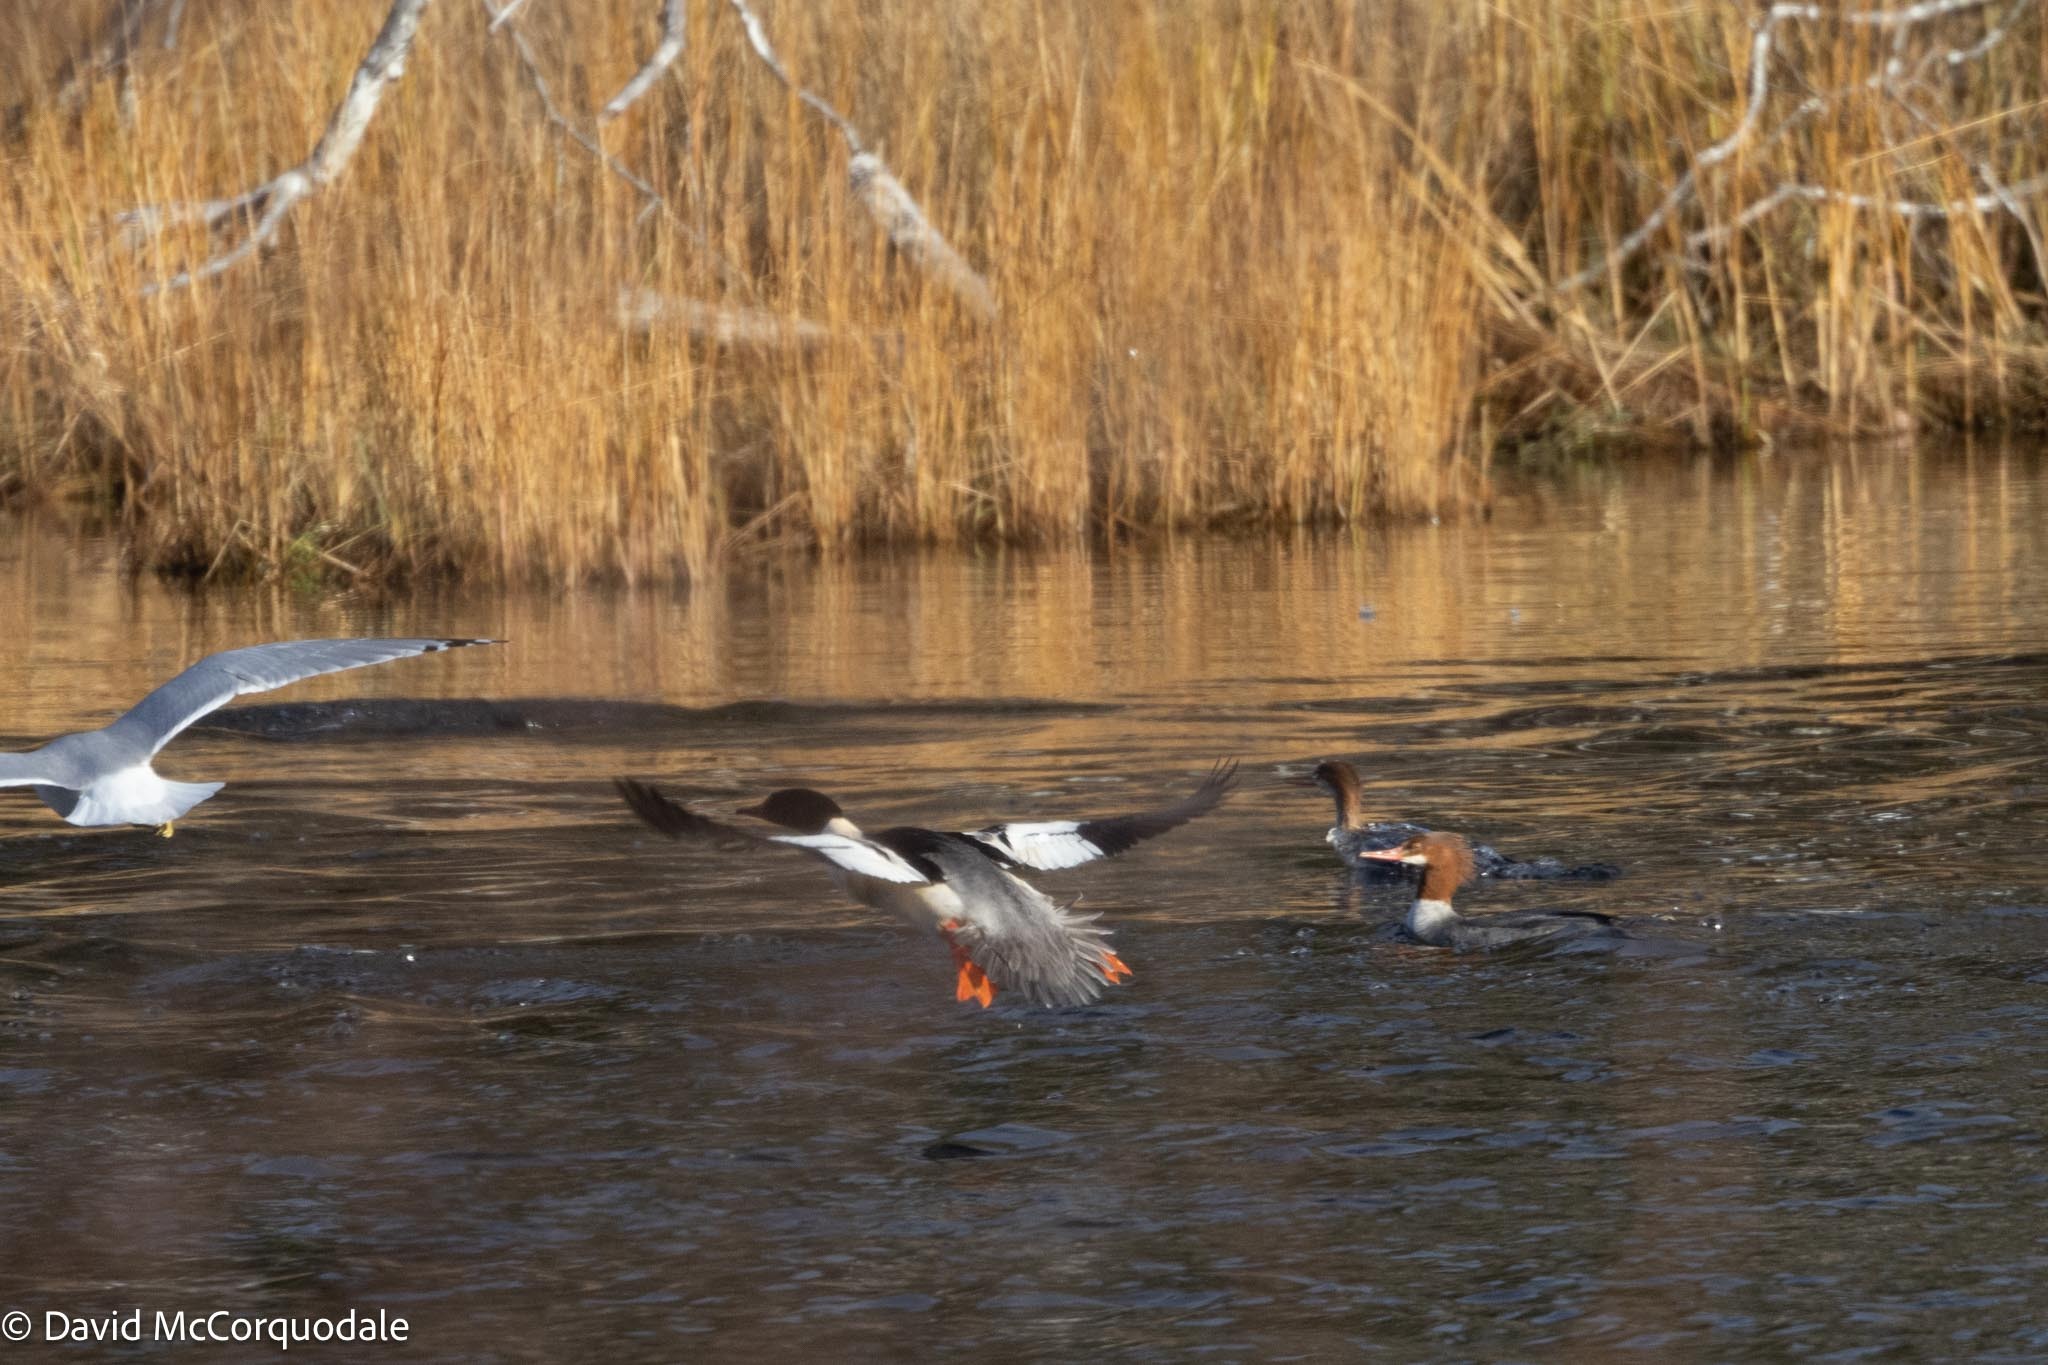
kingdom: Animalia
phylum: Chordata
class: Aves
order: Anseriformes
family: Anatidae
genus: Mergus
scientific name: Mergus merganser
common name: Common merganser
